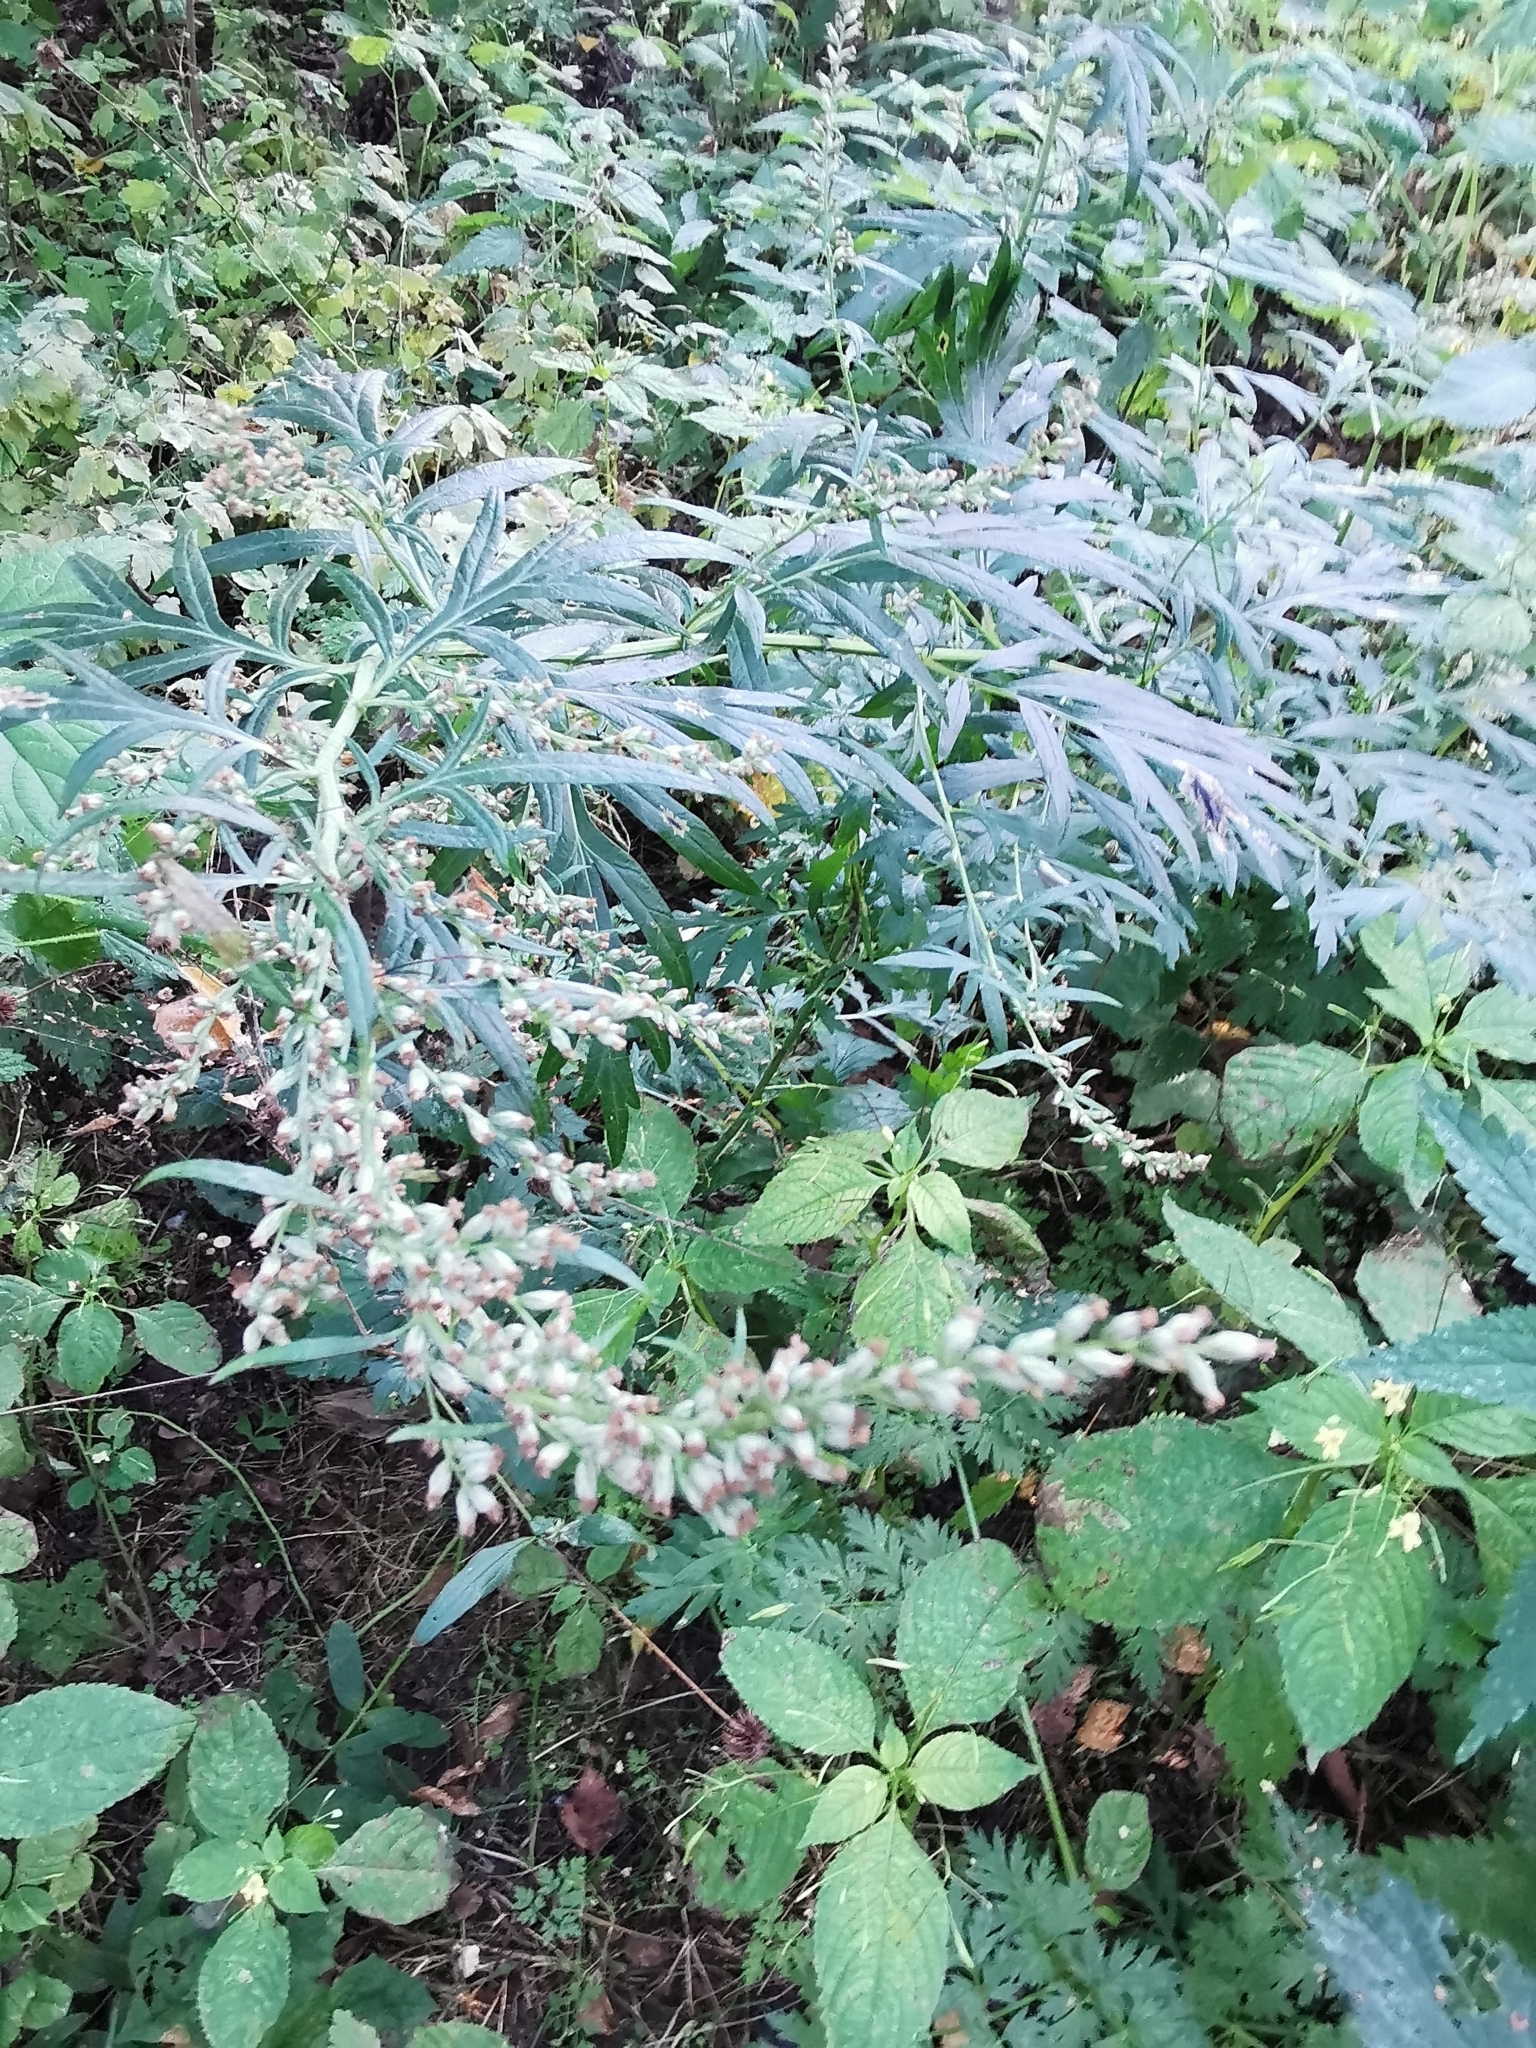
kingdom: Plantae
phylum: Tracheophyta
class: Magnoliopsida
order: Asterales
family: Asteraceae
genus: Artemisia
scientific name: Artemisia vulgaris
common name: Mugwort
